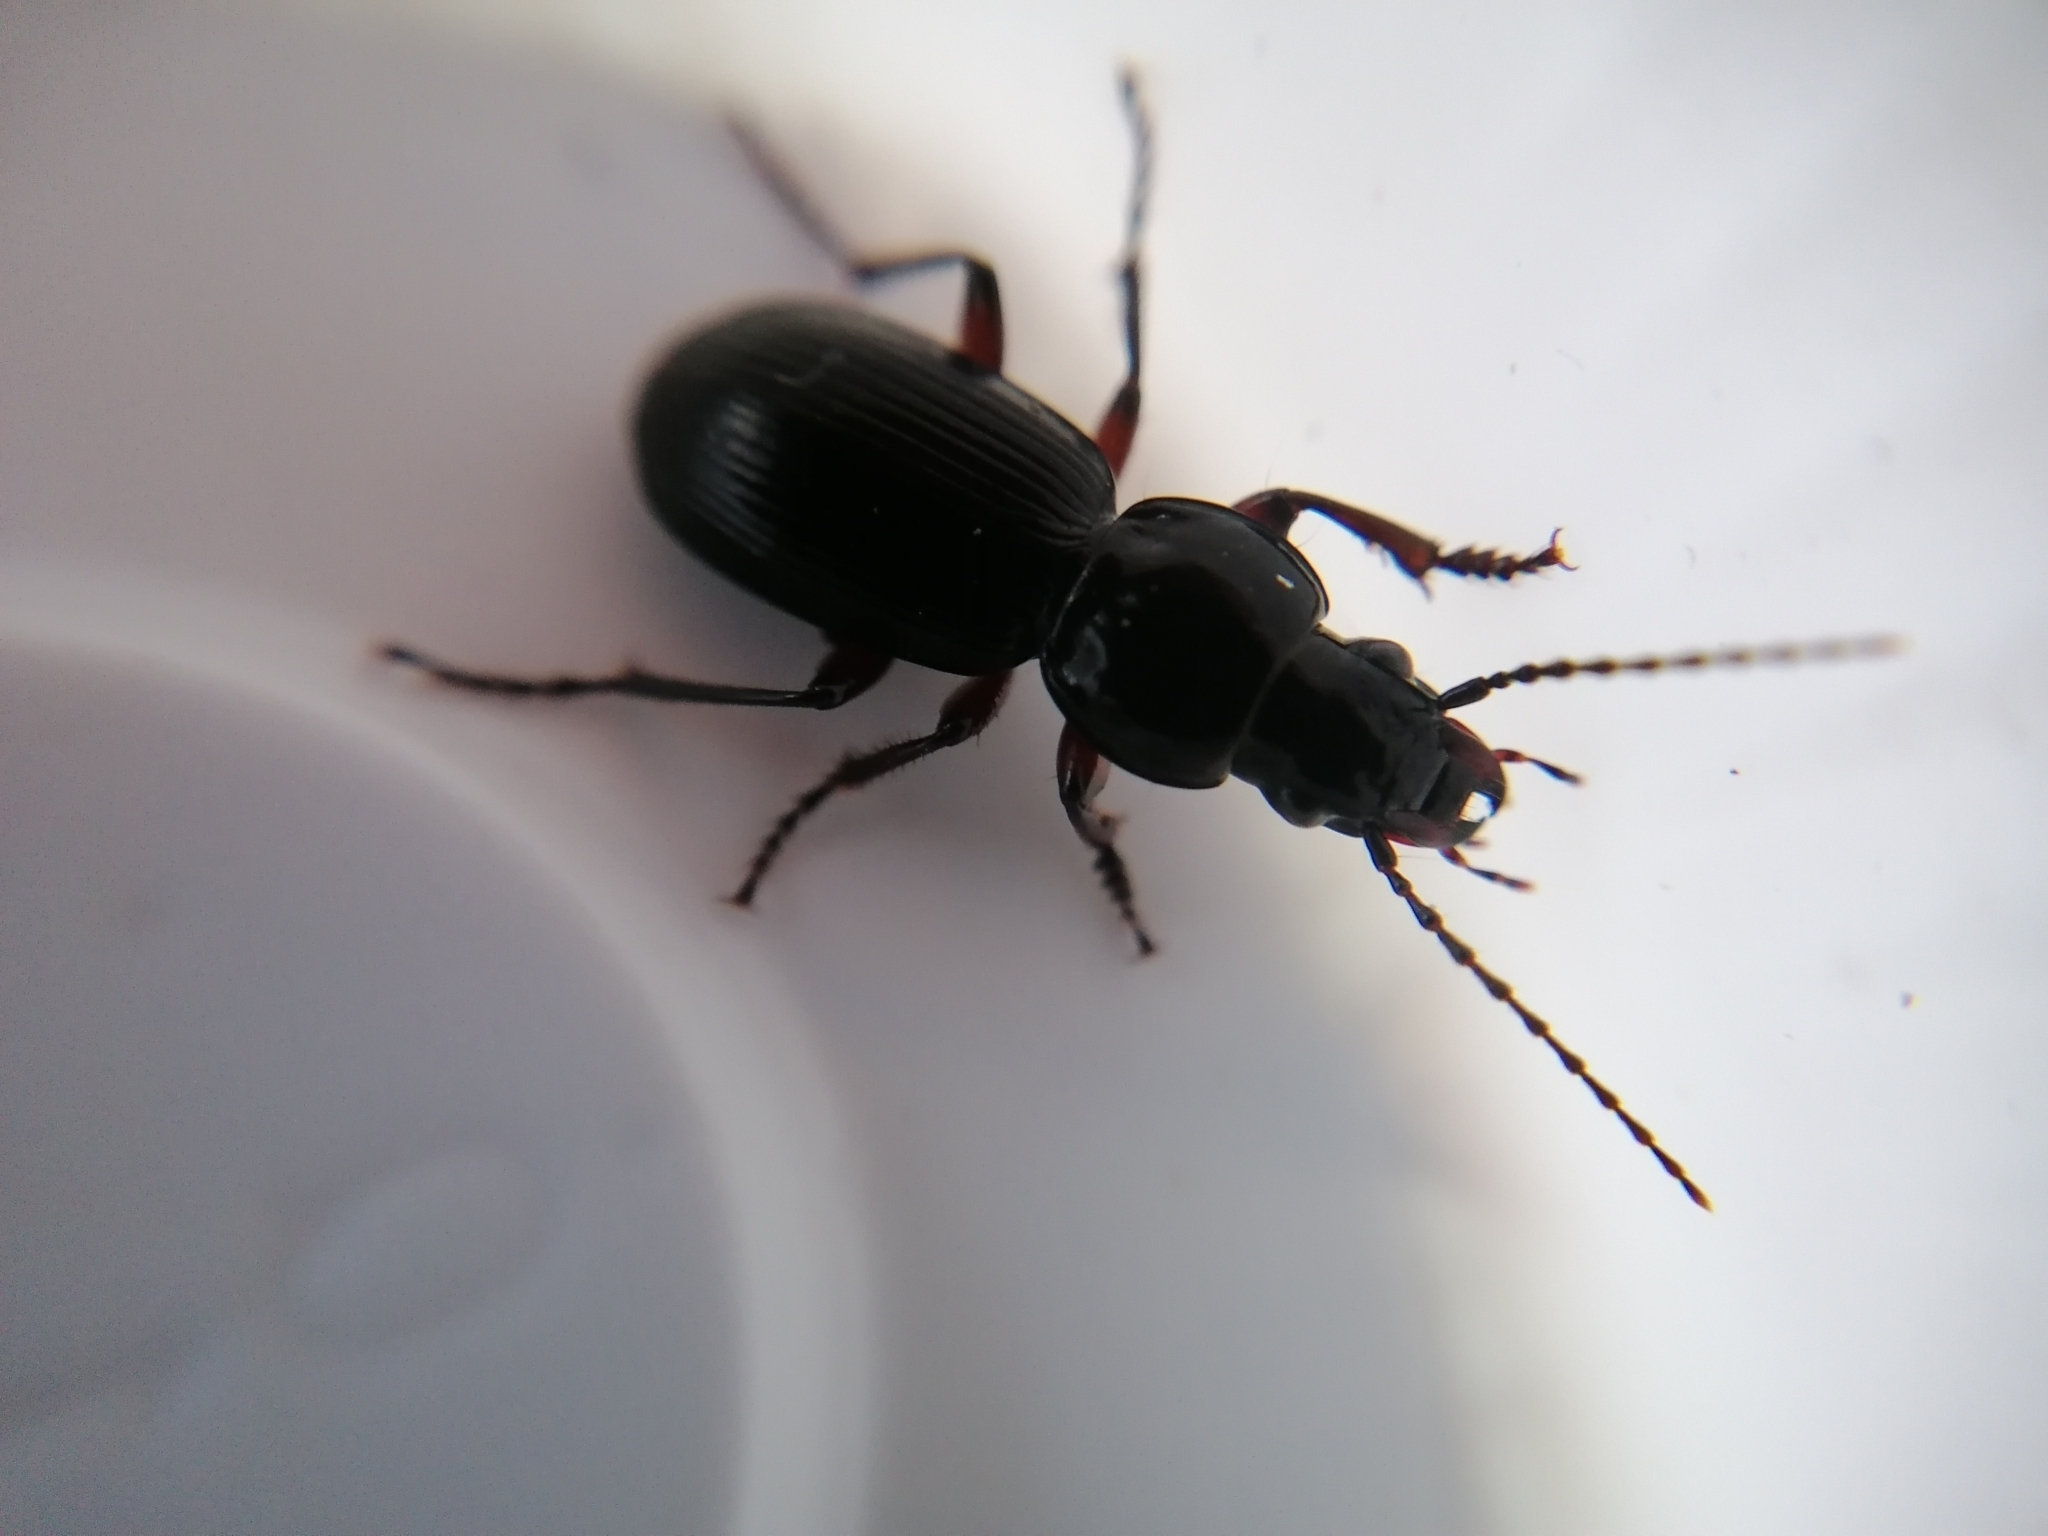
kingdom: Animalia
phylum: Arthropoda
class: Insecta
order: Coleoptera
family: Carabidae
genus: Pterostichus
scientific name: Pterostichus madidus
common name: Black clock
